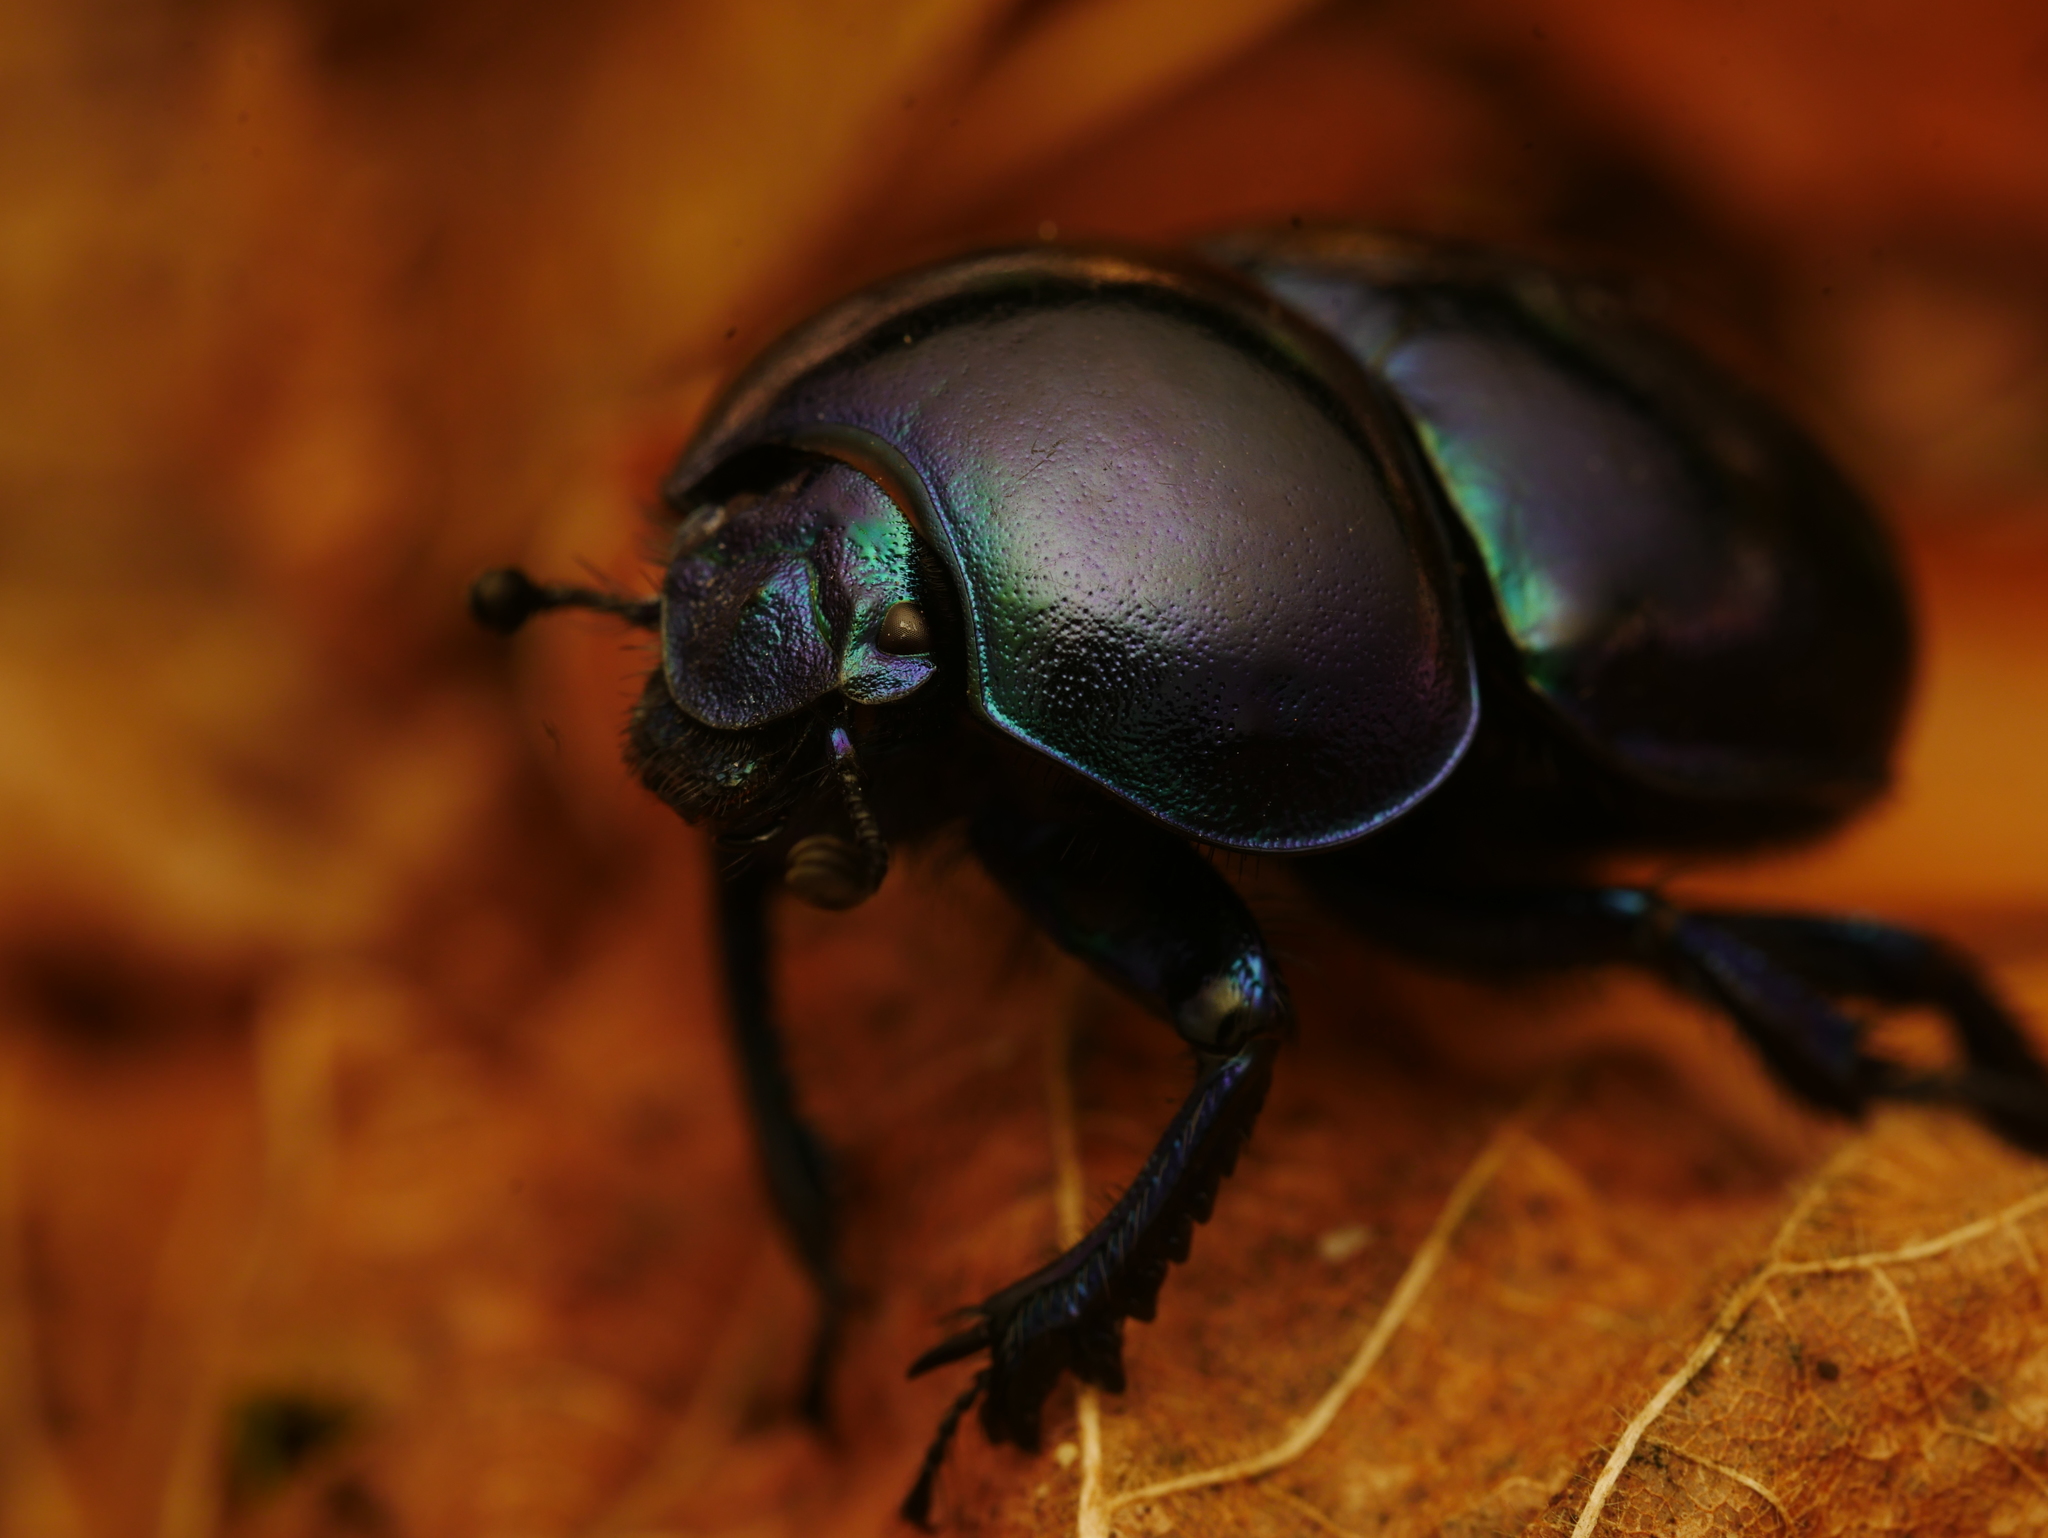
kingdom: Animalia
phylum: Arthropoda
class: Insecta
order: Coleoptera
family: Geotrupidae
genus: Trypocopris
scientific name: Trypocopris vernalis
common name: Spring dumbledor
